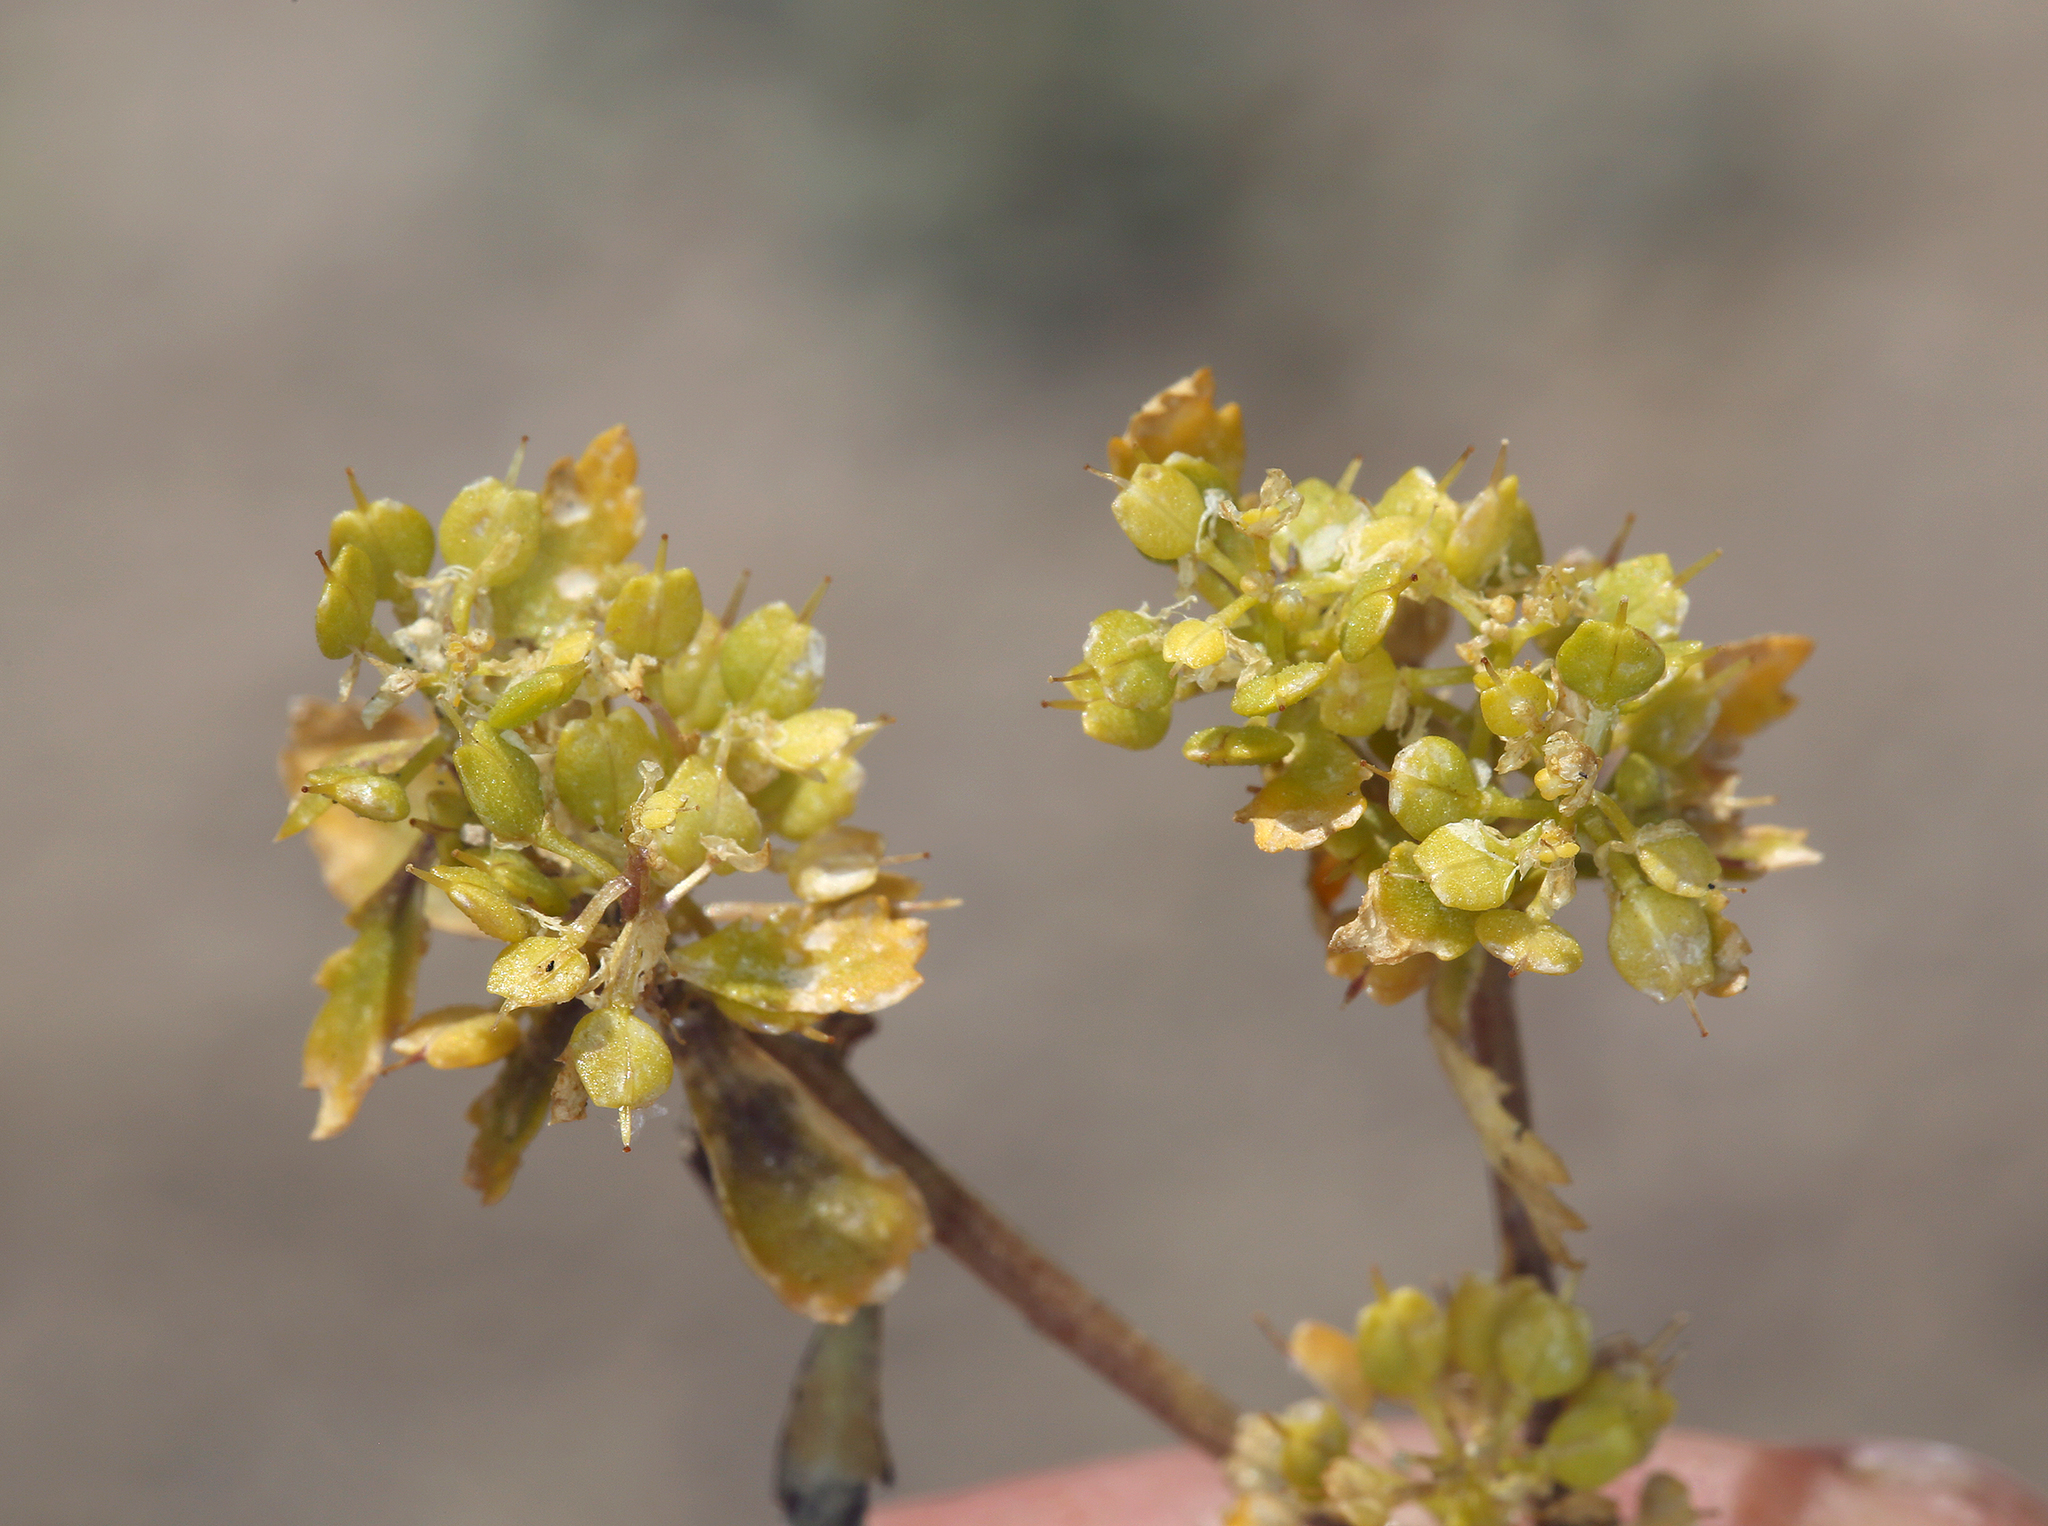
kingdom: Plantae
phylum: Tracheophyta
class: Magnoliopsida
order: Brassicales
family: Brassicaceae
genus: Lepidium
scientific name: Lepidium flavum
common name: Yellow pepperwort
